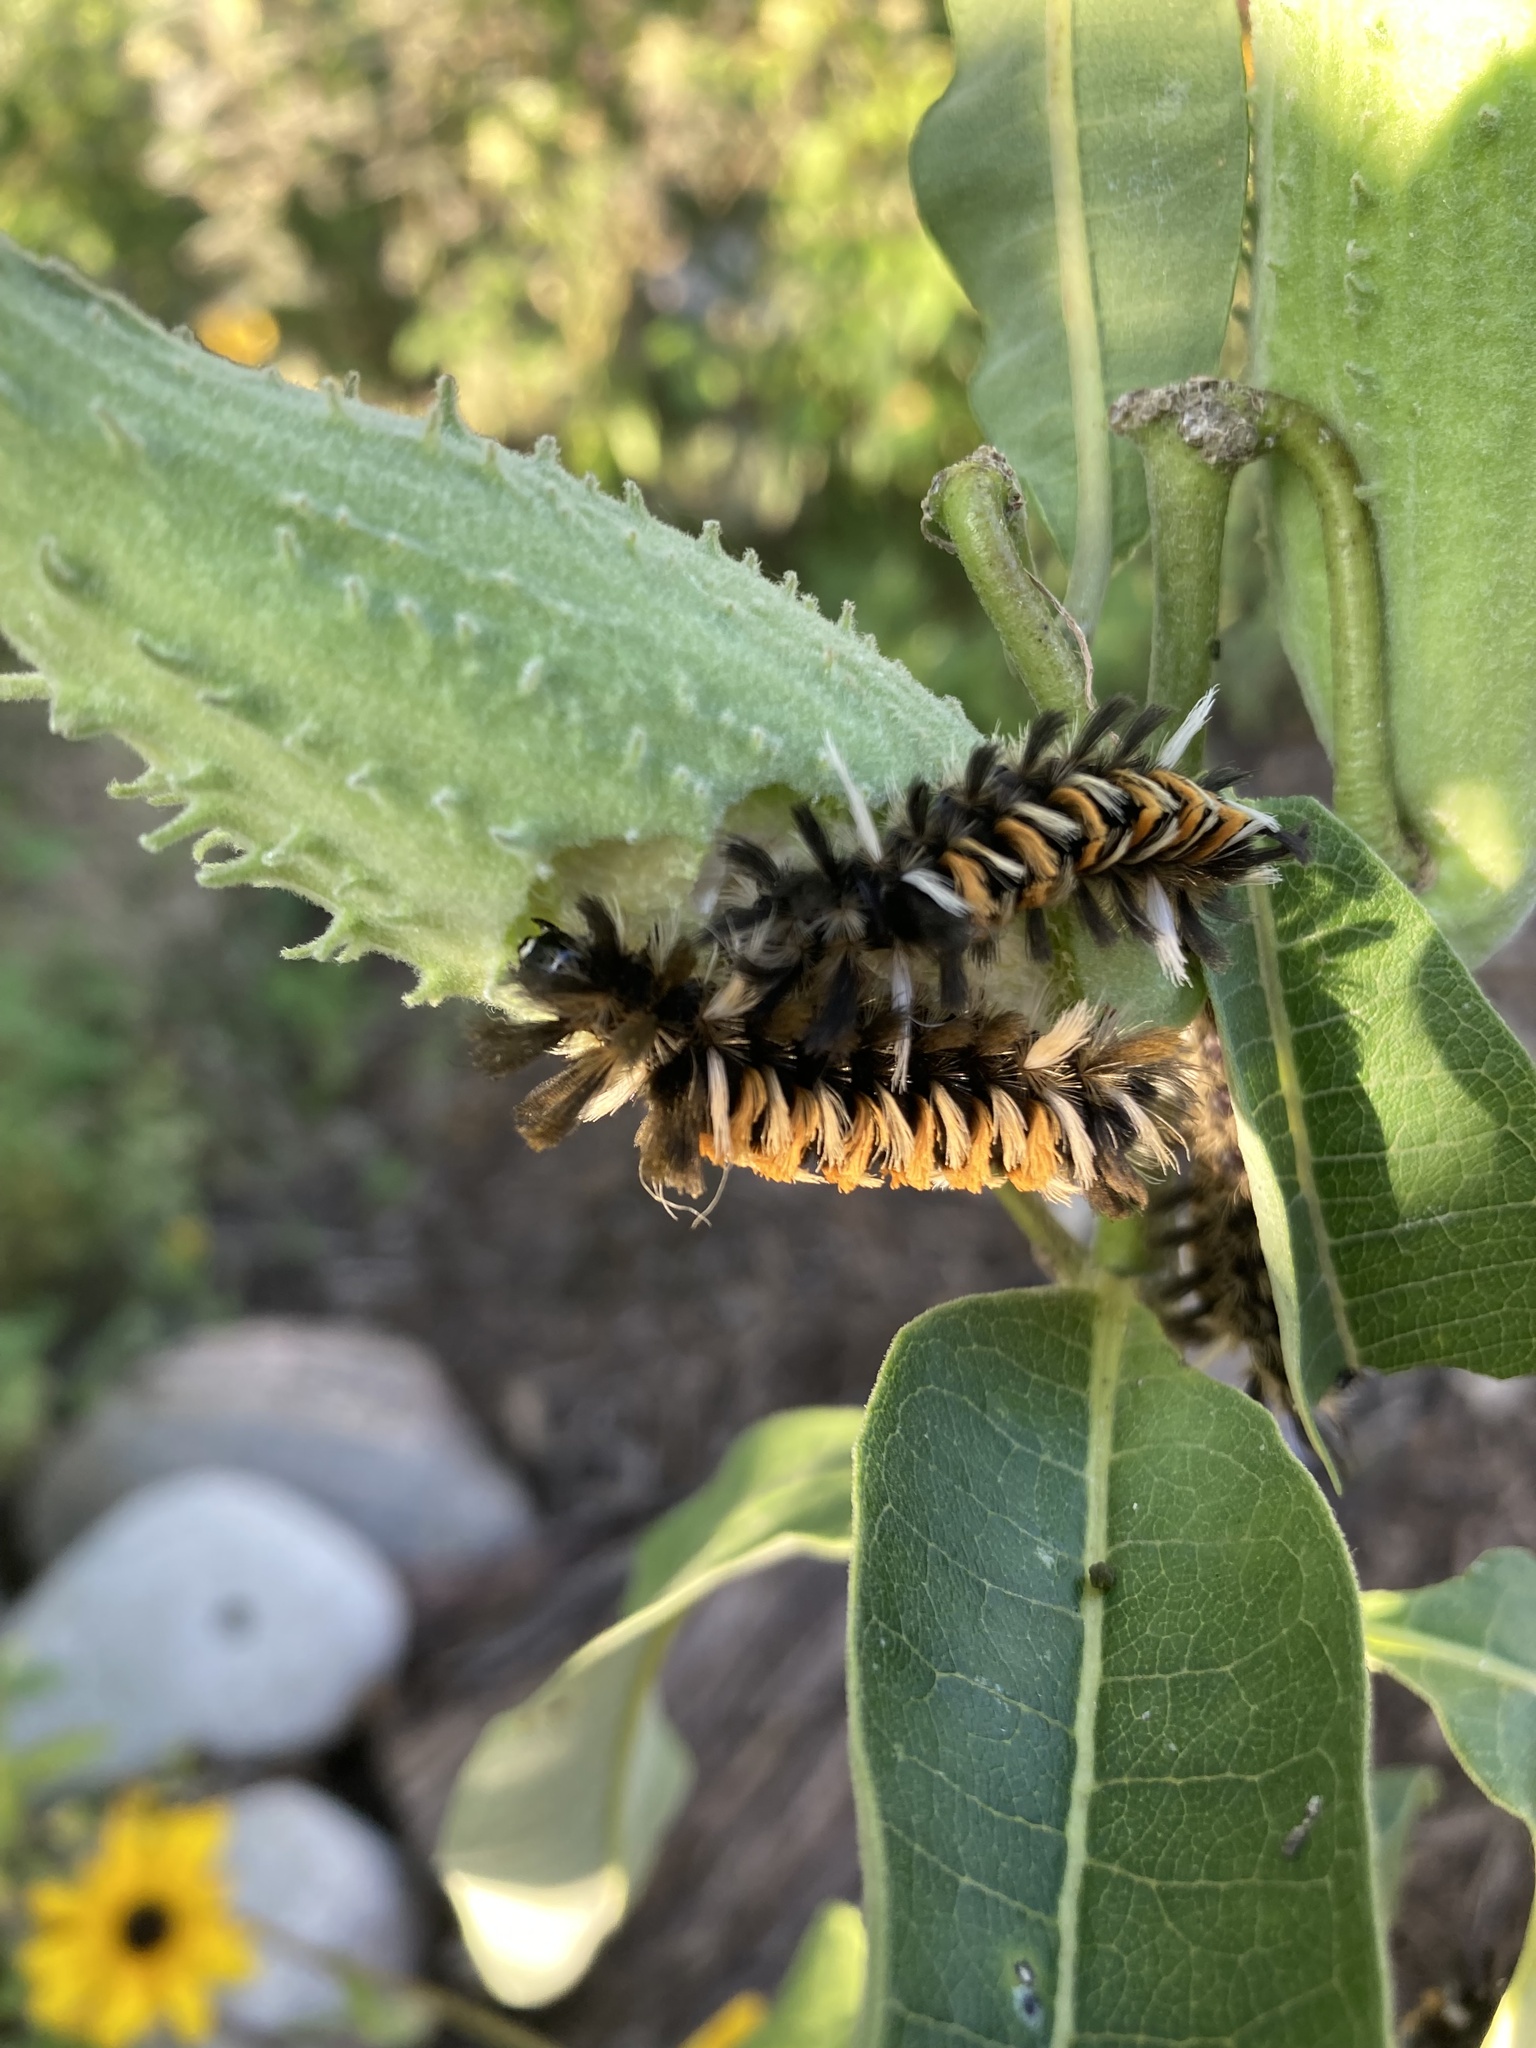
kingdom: Animalia
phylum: Arthropoda
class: Insecta
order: Lepidoptera
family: Erebidae
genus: Euchaetes
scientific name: Euchaetes egle
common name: Milkweed tussock moth
